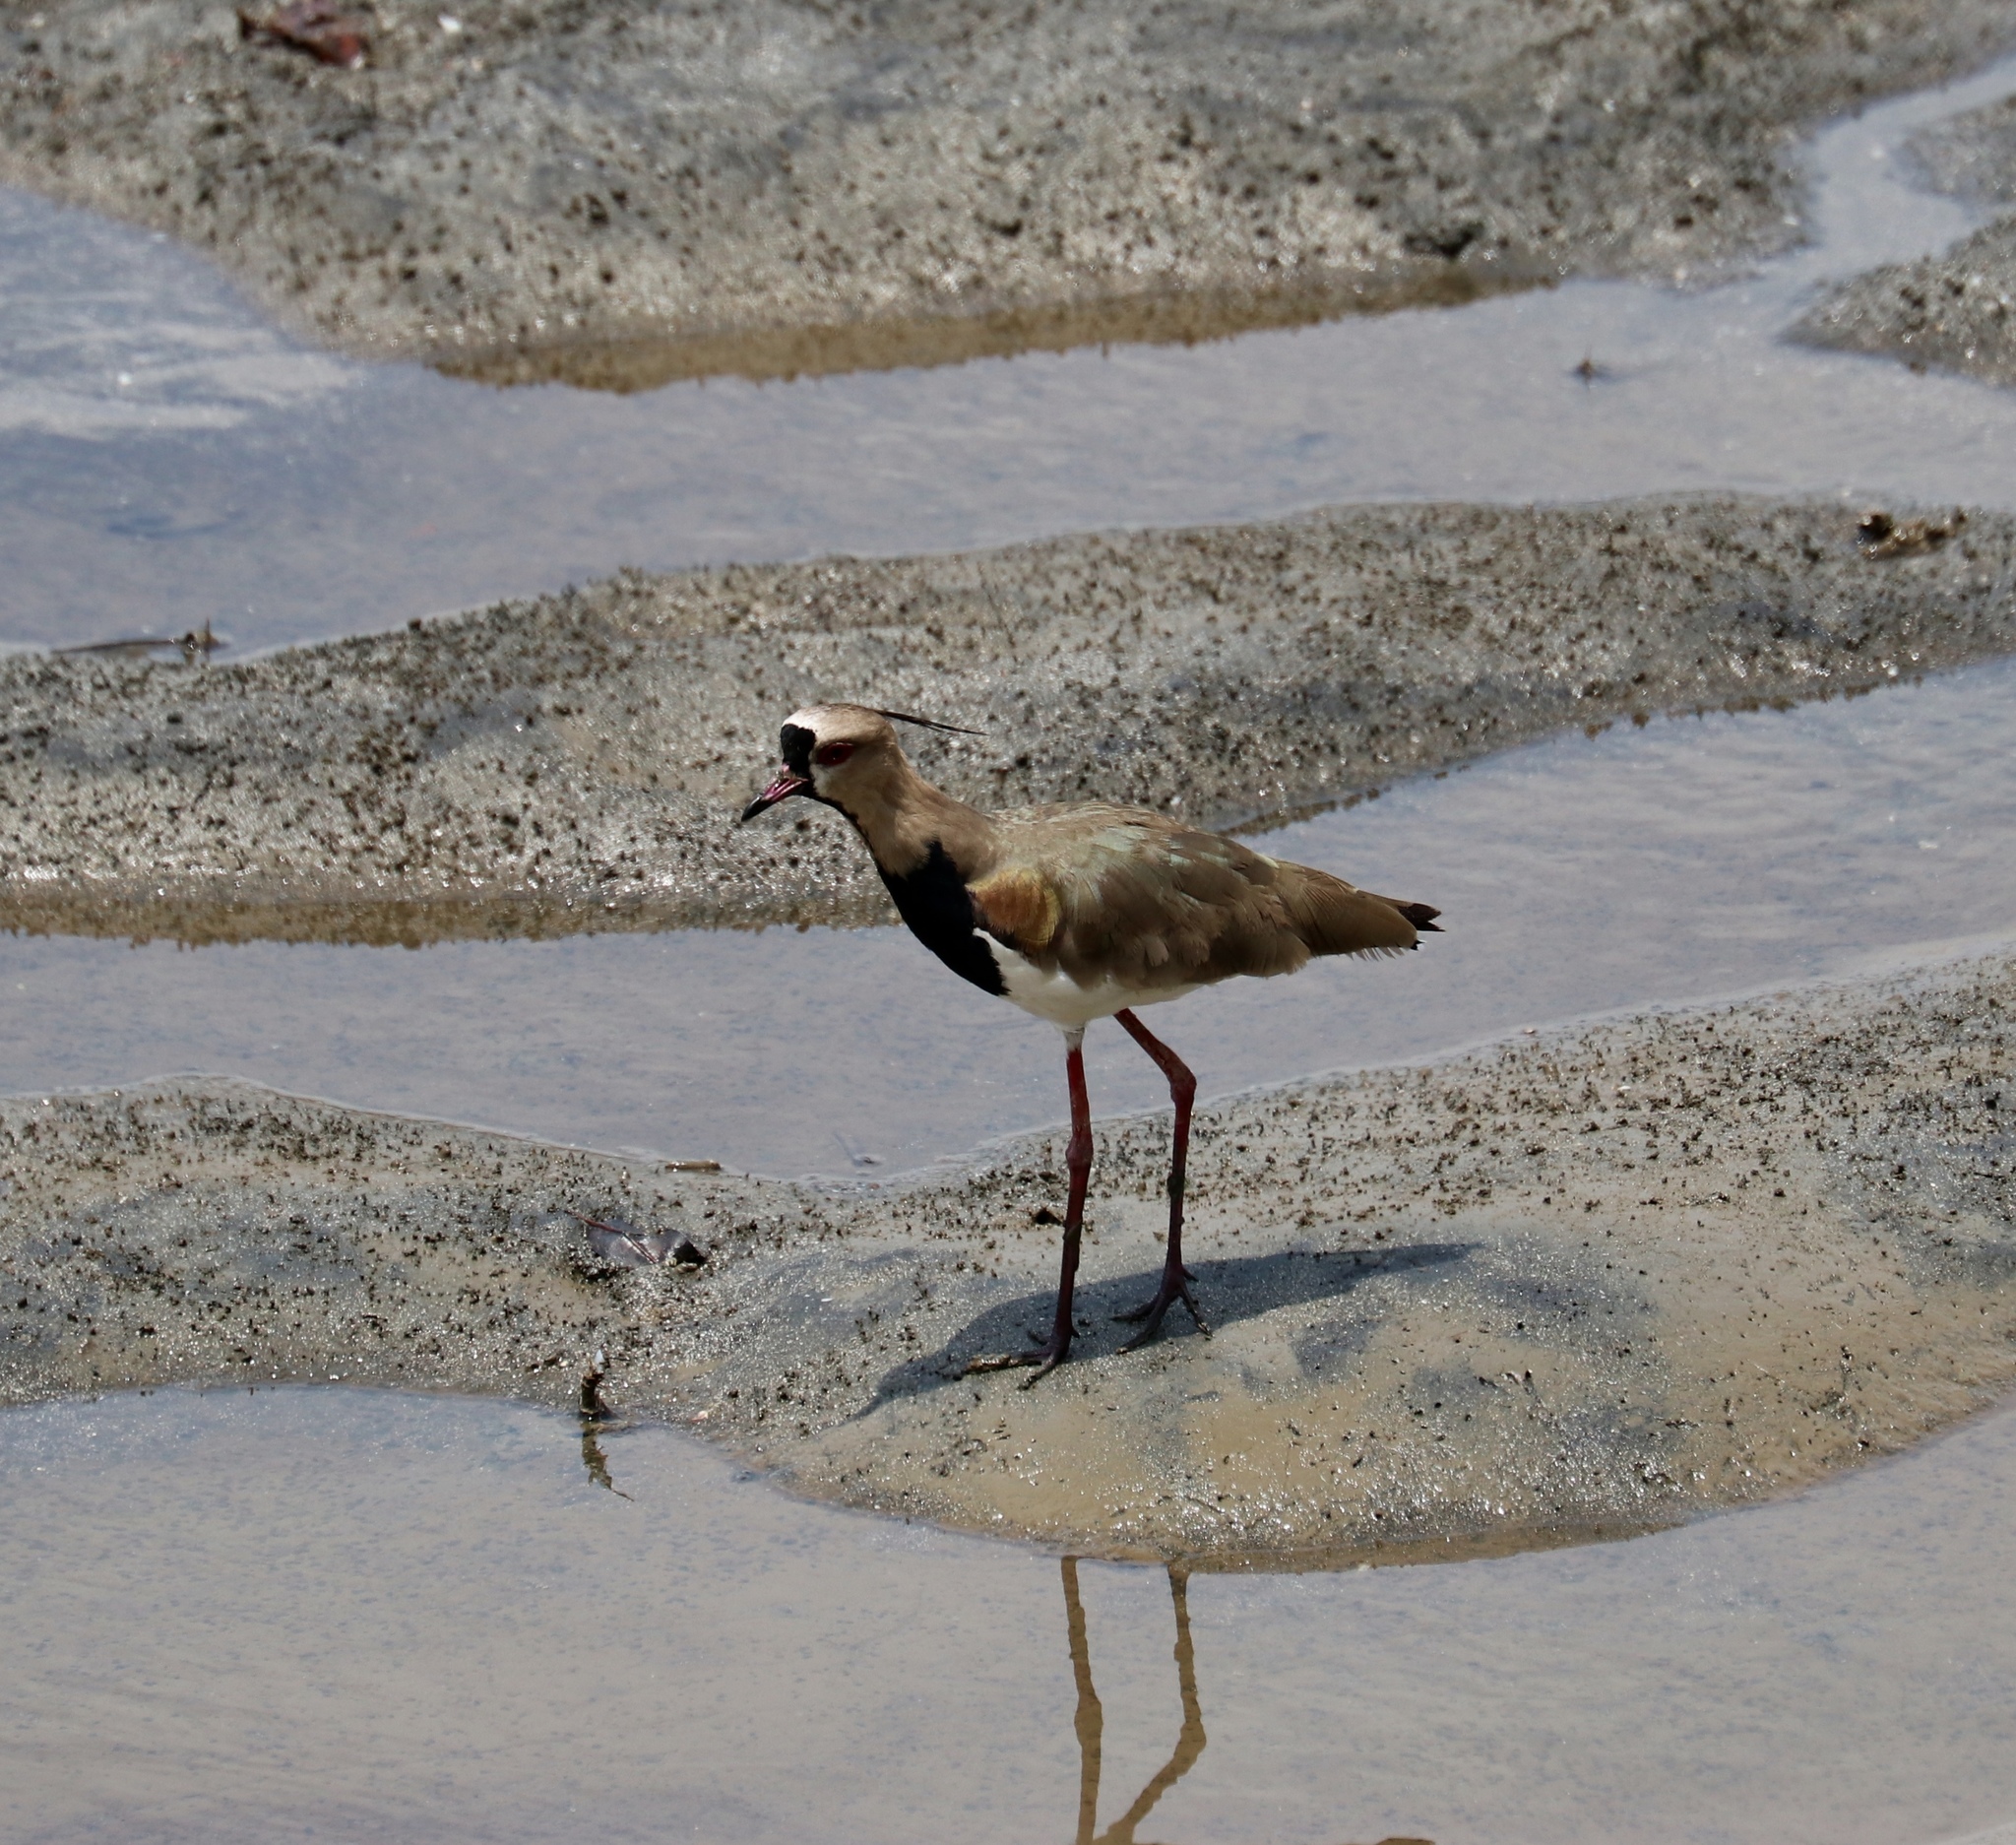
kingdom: Animalia
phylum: Chordata
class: Aves
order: Charadriiformes
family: Charadriidae
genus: Vanellus
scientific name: Vanellus chilensis
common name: Southern lapwing
